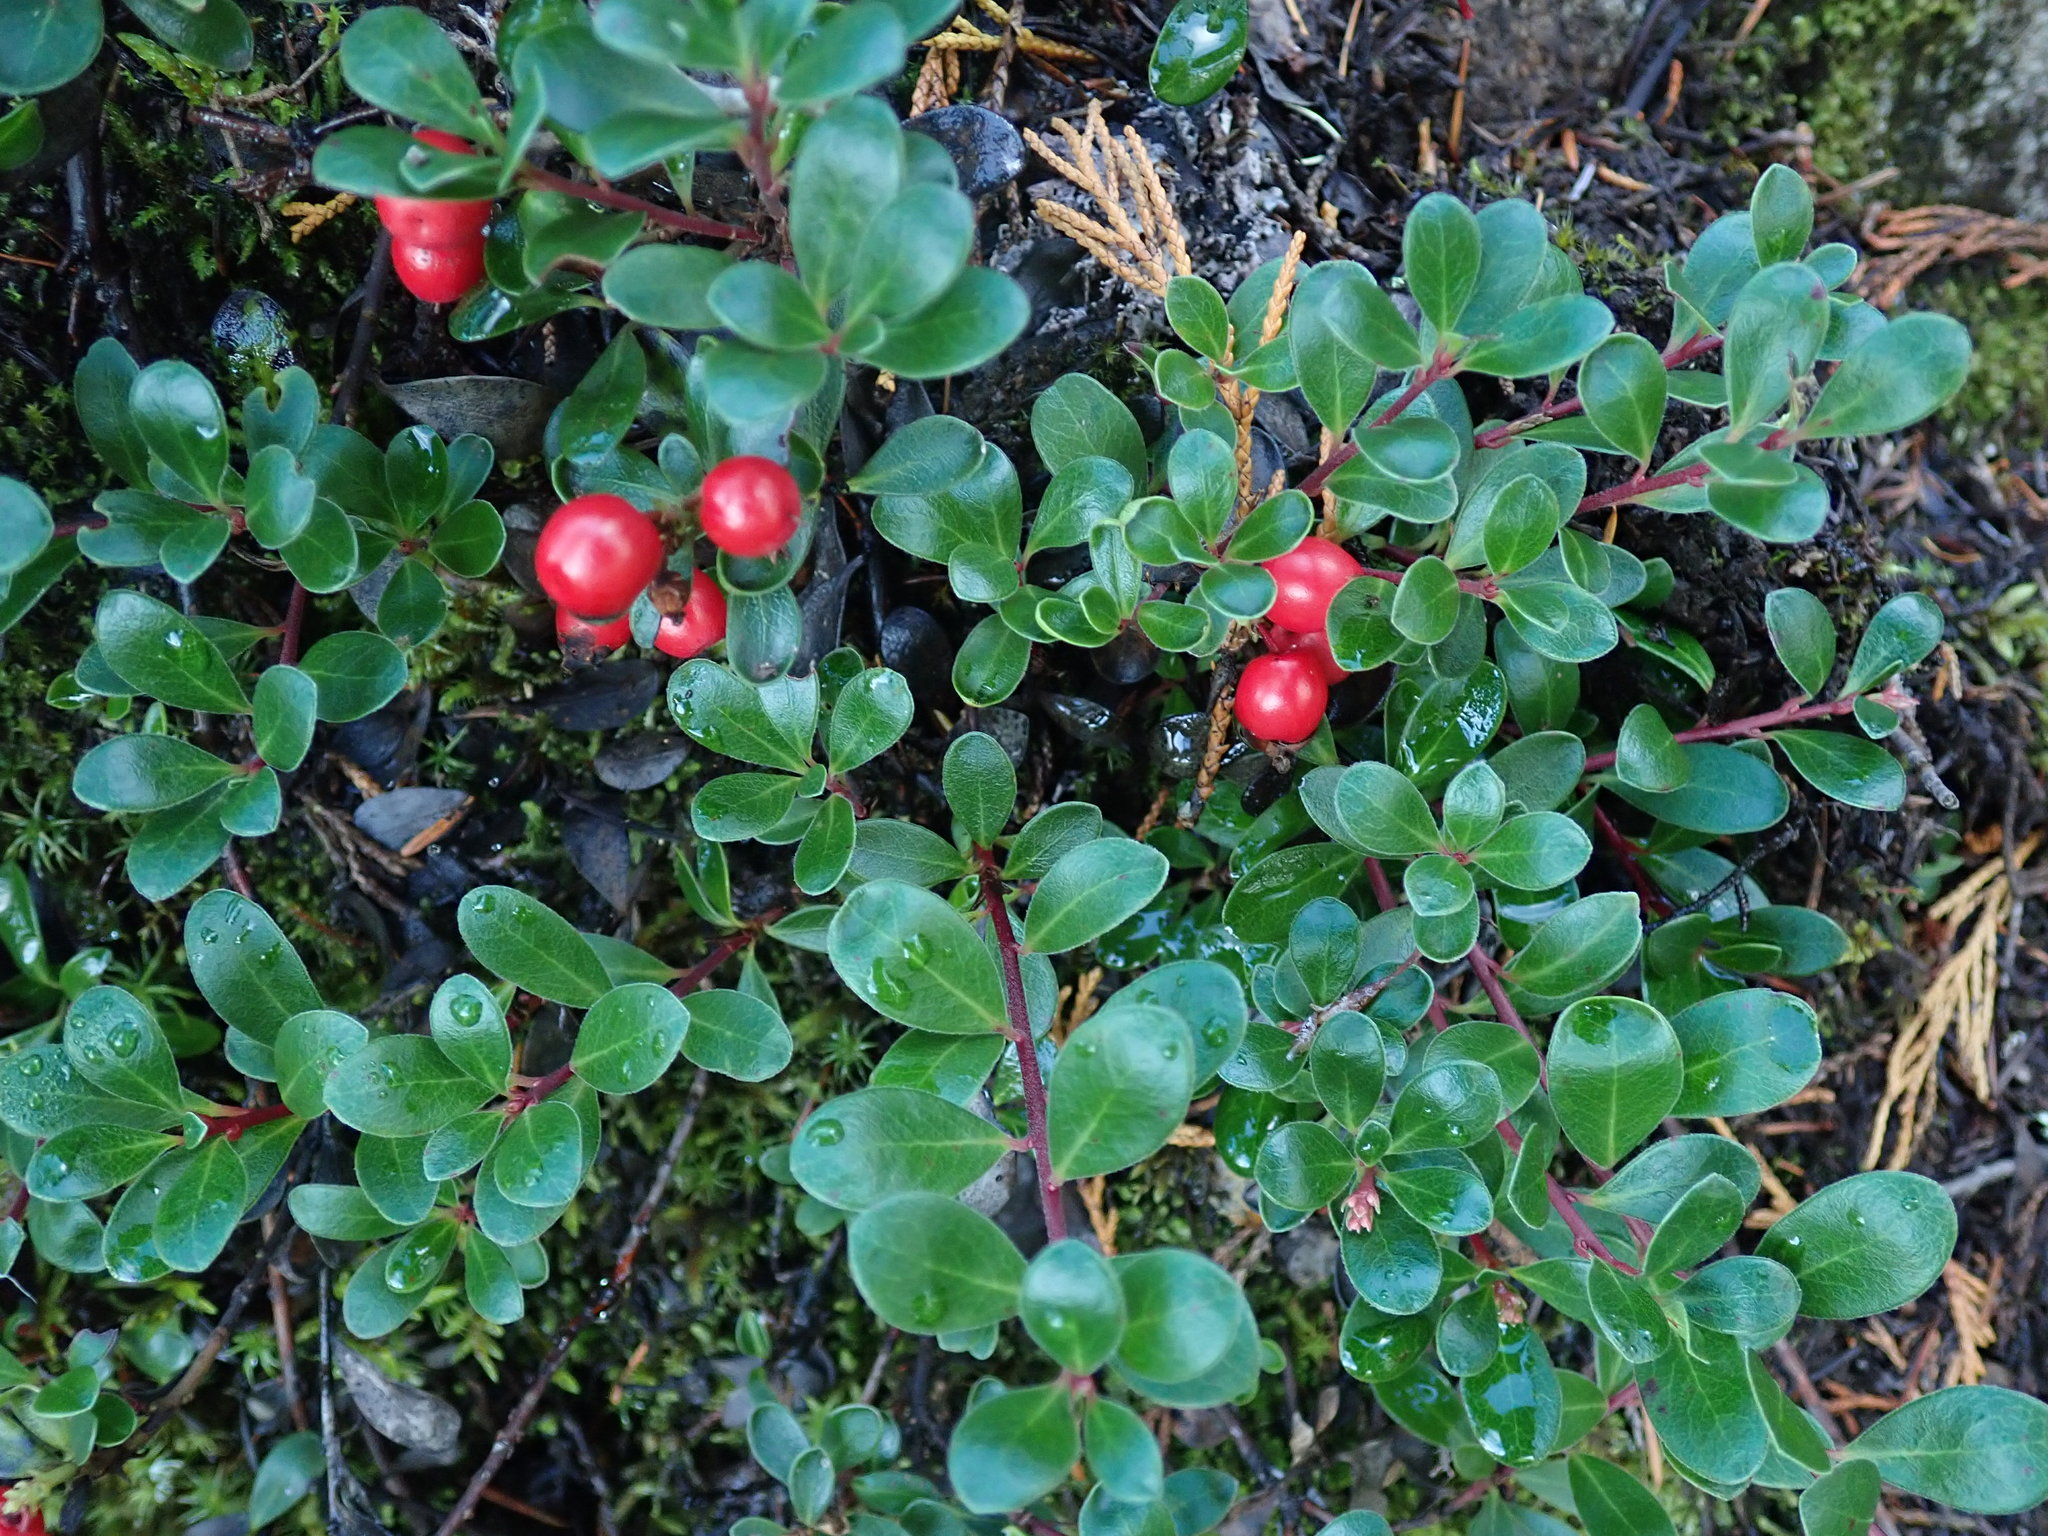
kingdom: Plantae
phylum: Tracheophyta
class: Magnoliopsida
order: Ericales
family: Ericaceae
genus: Arctostaphylos
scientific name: Arctostaphylos uva-ursi
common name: Bearberry
